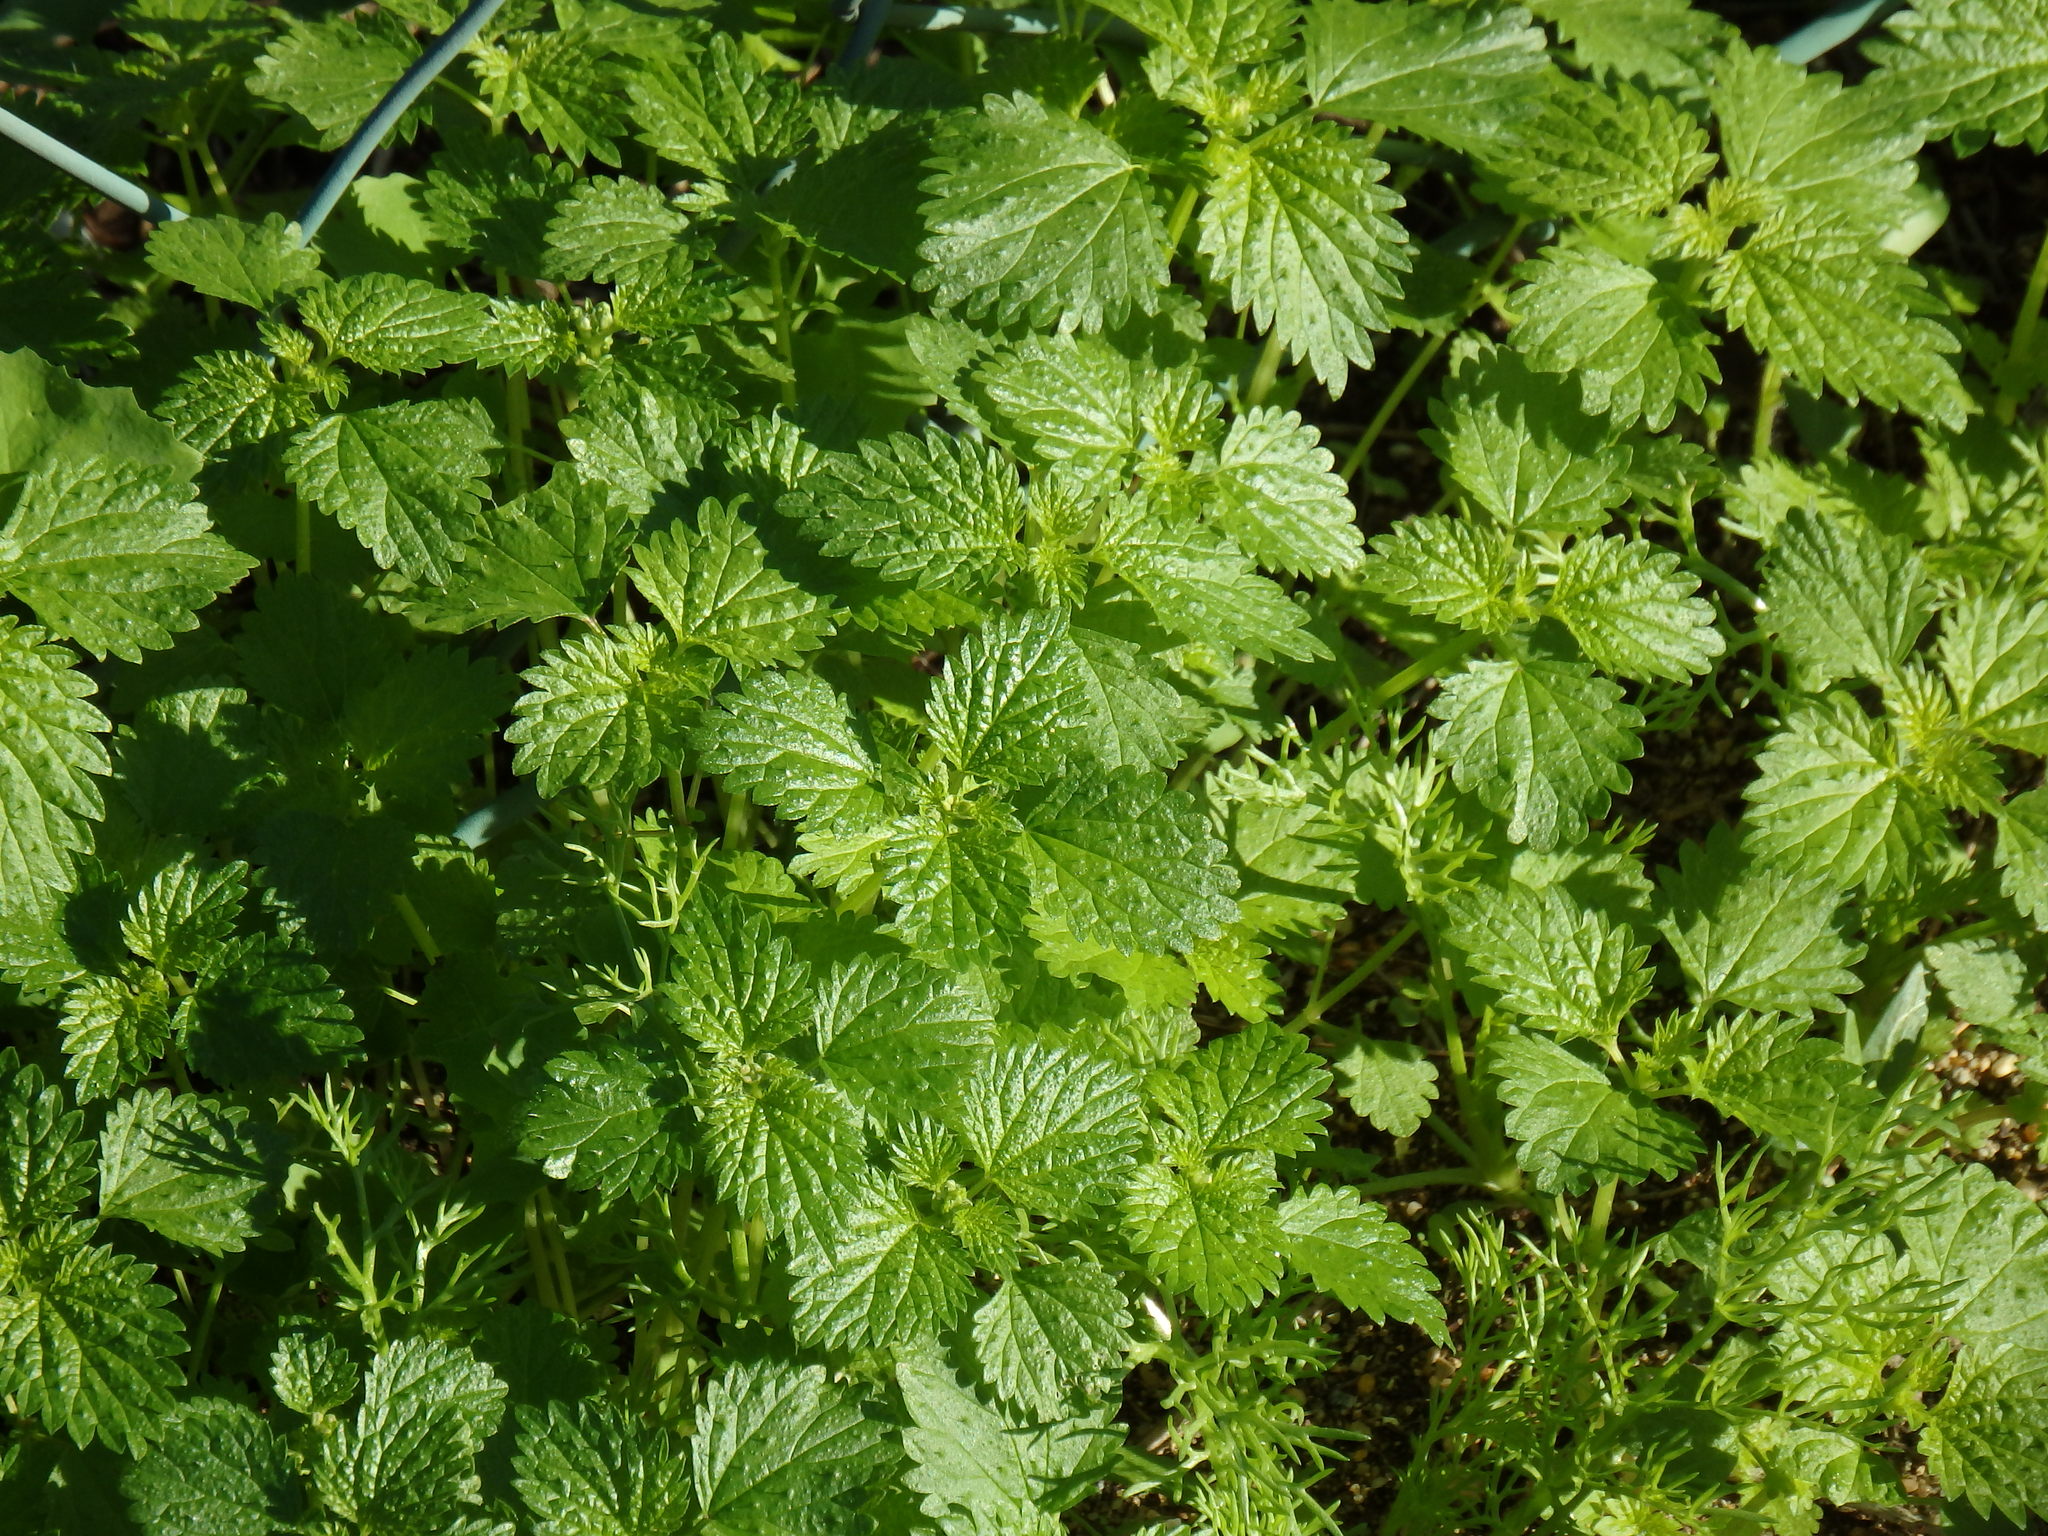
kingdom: Plantae
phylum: Tracheophyta
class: Magnoliopsida
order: Rosales
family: Urticaceae
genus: Urtica
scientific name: Urtica membranacea
